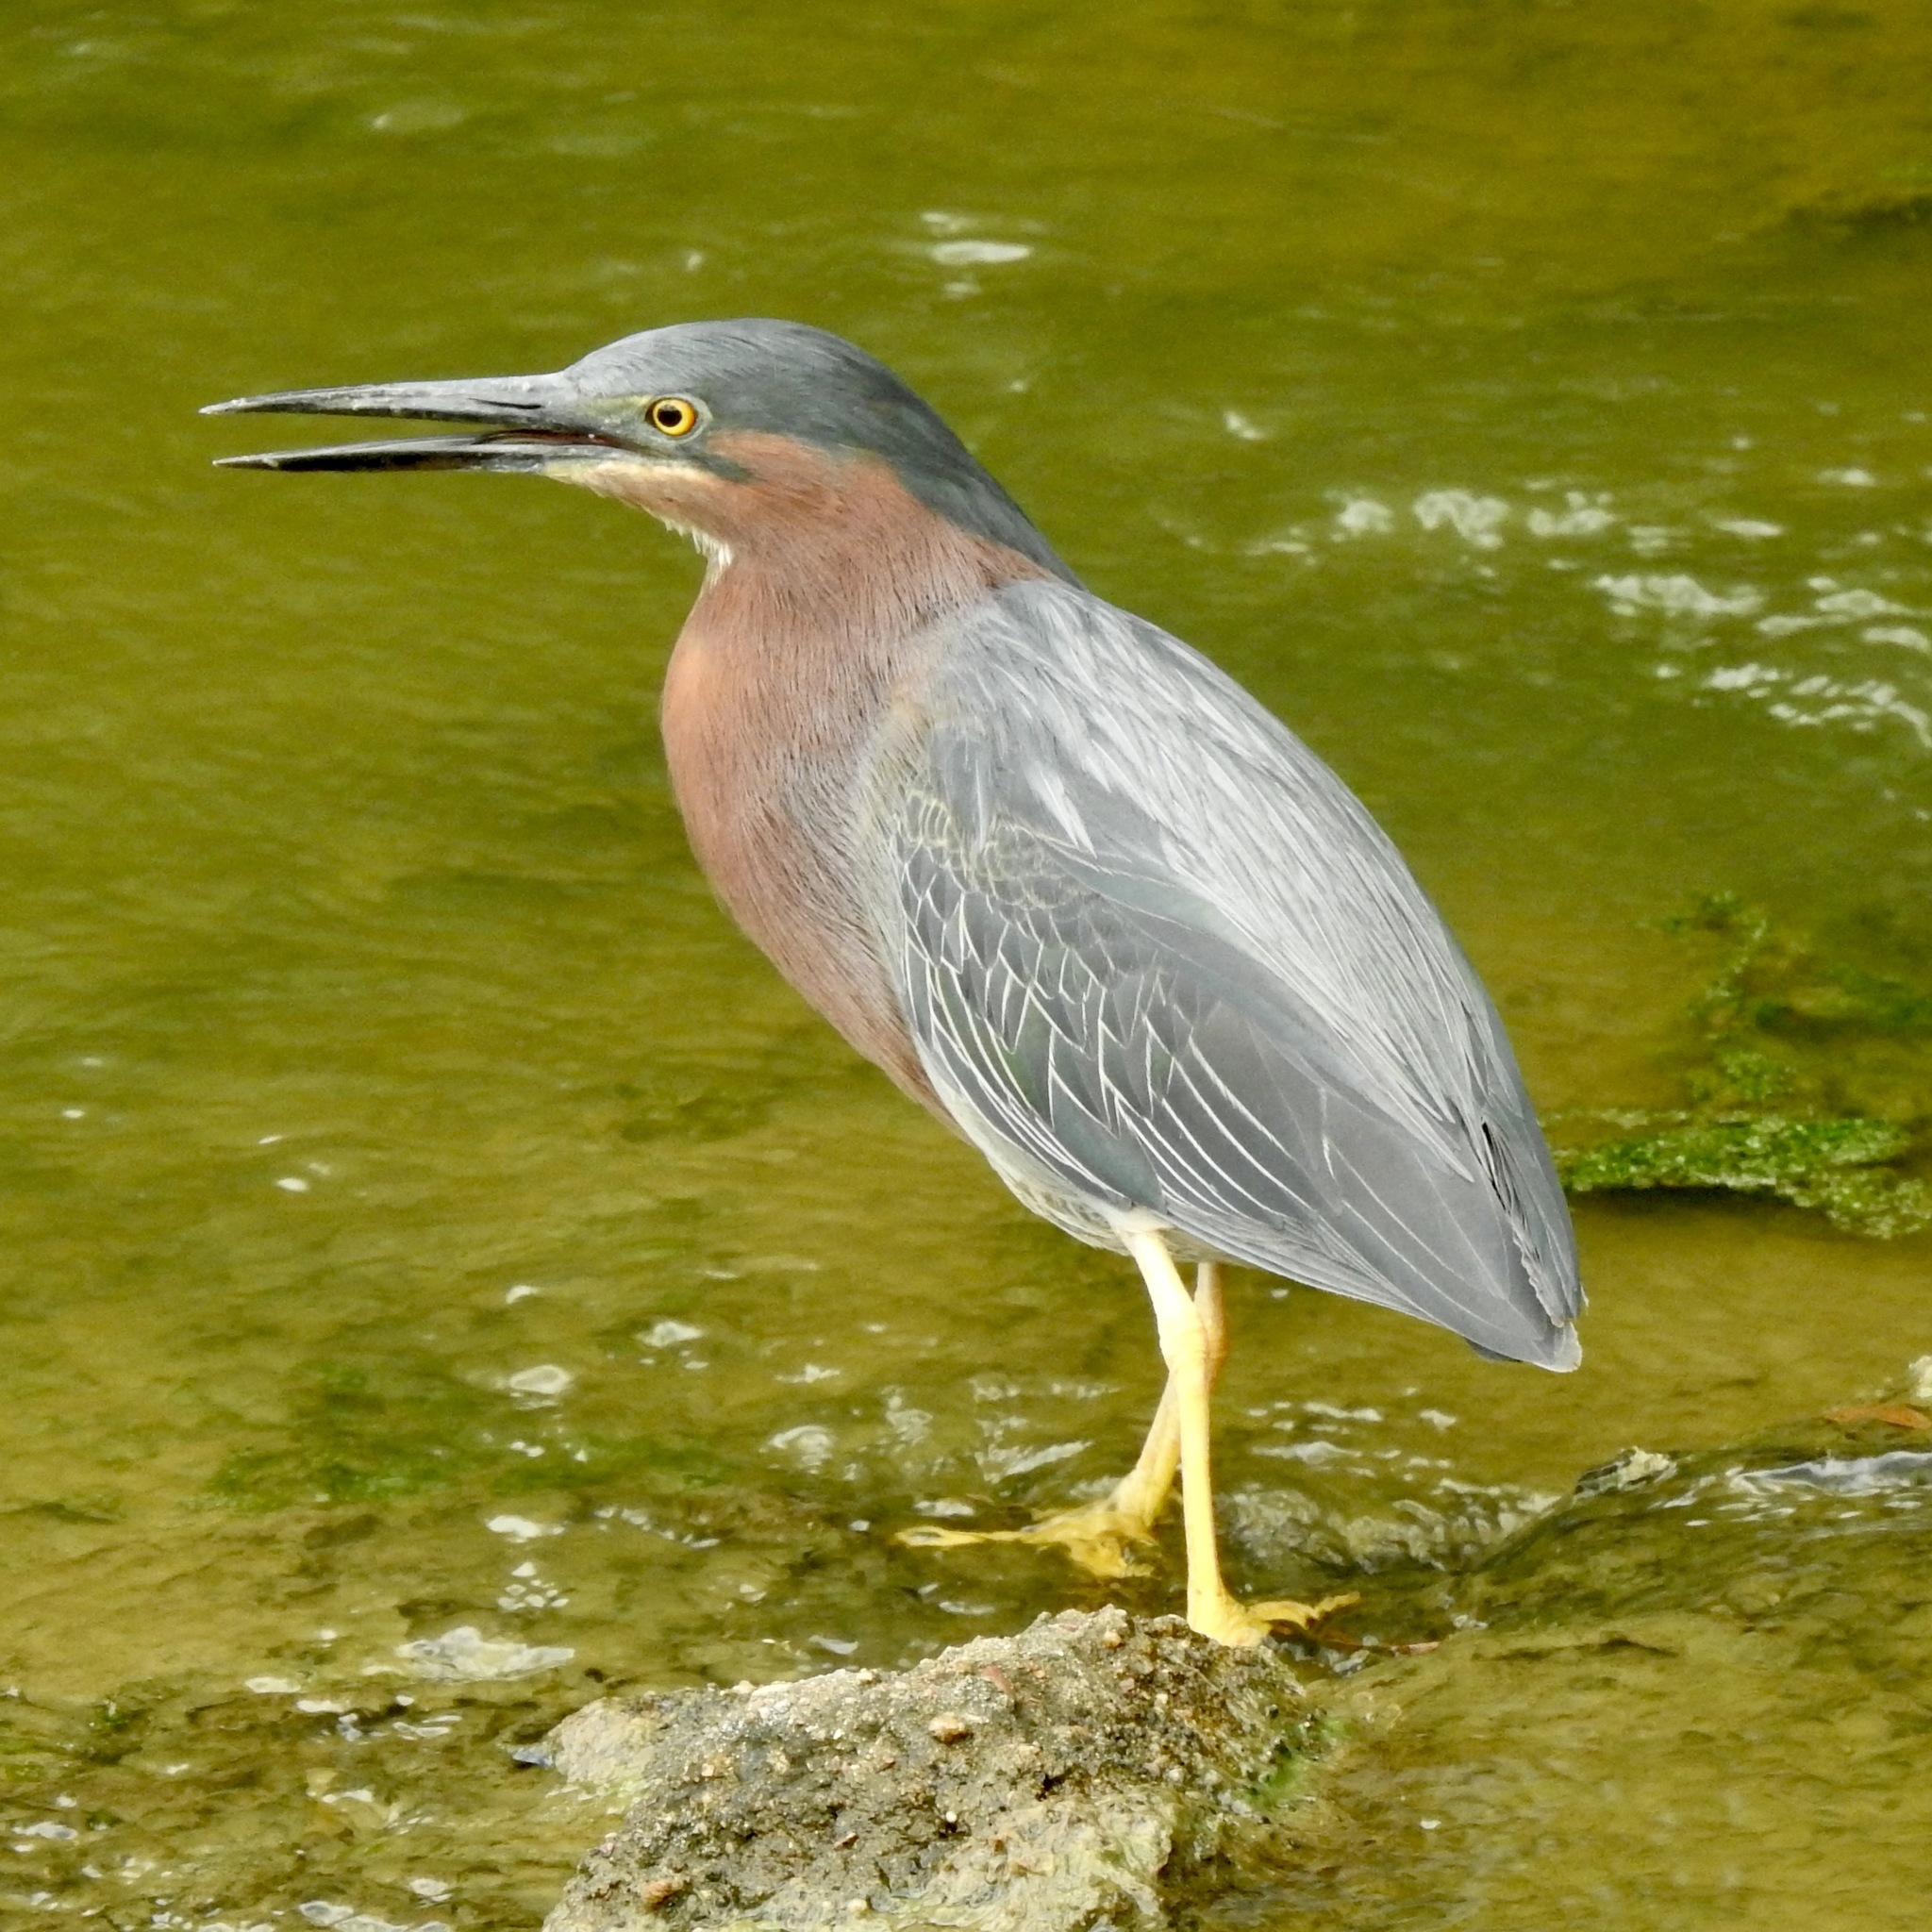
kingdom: Animalia
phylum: Chordata
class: Aves
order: Pelecaniformes
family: Ardeidae
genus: Butorides
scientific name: Butorides virescens
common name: Green heron
